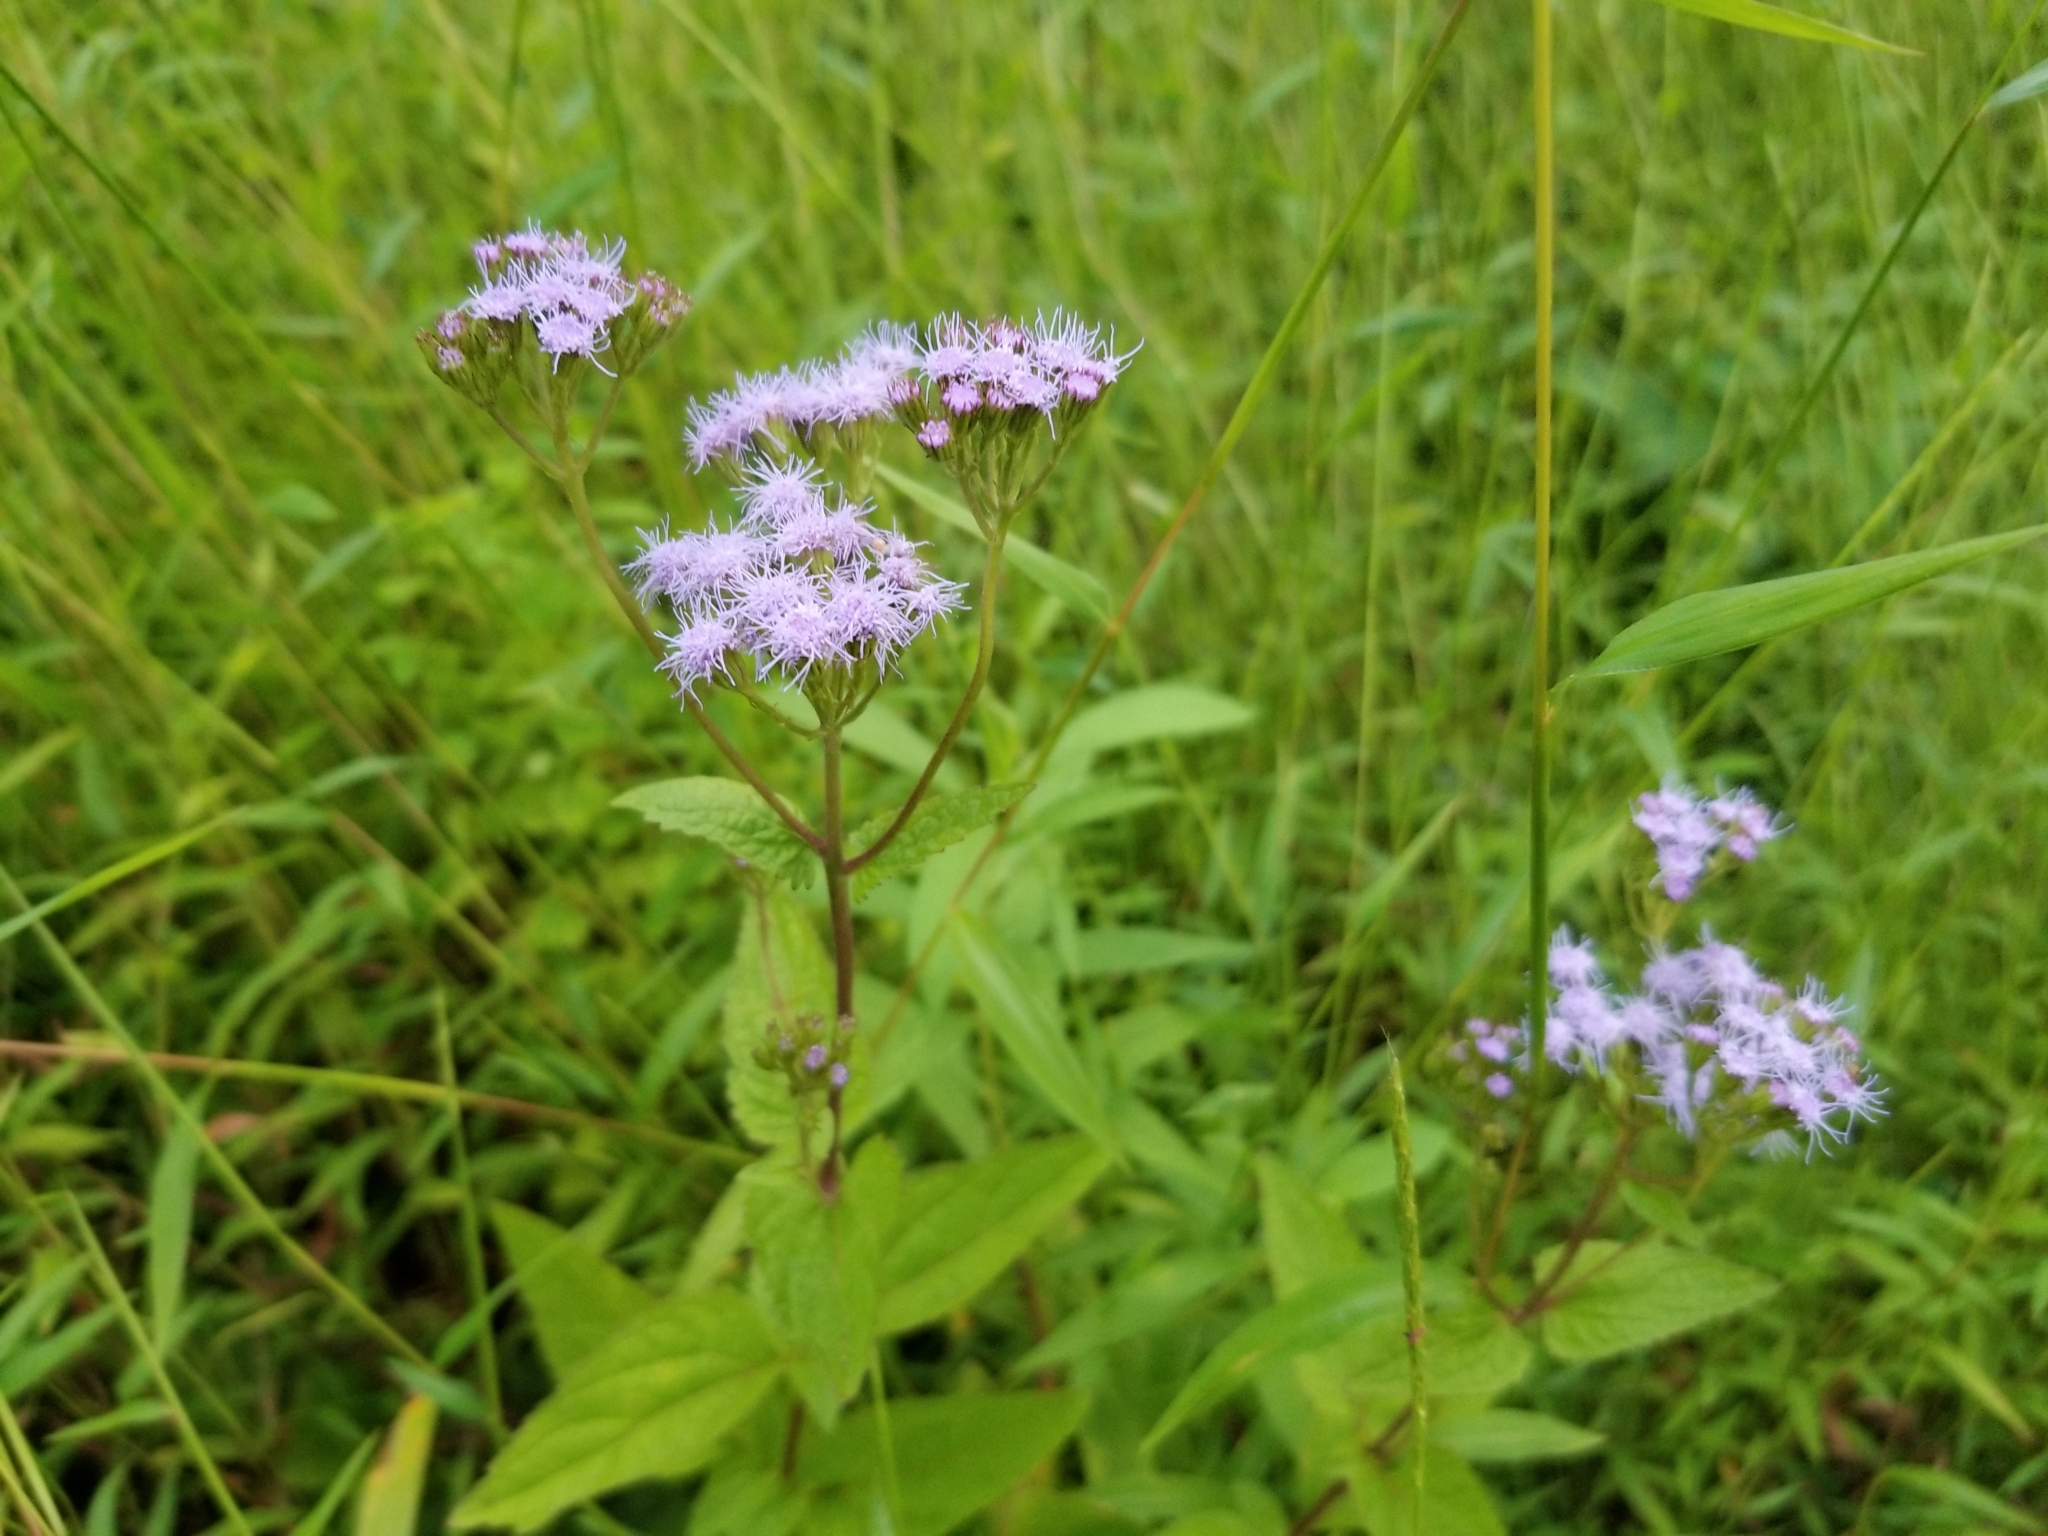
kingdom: Plantae
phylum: Tracheophyta
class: Magnoliopsida
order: Asterales
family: Asteraceae
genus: Conoclinium
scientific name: Conoclinium coelestinum
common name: Blue mistflower
